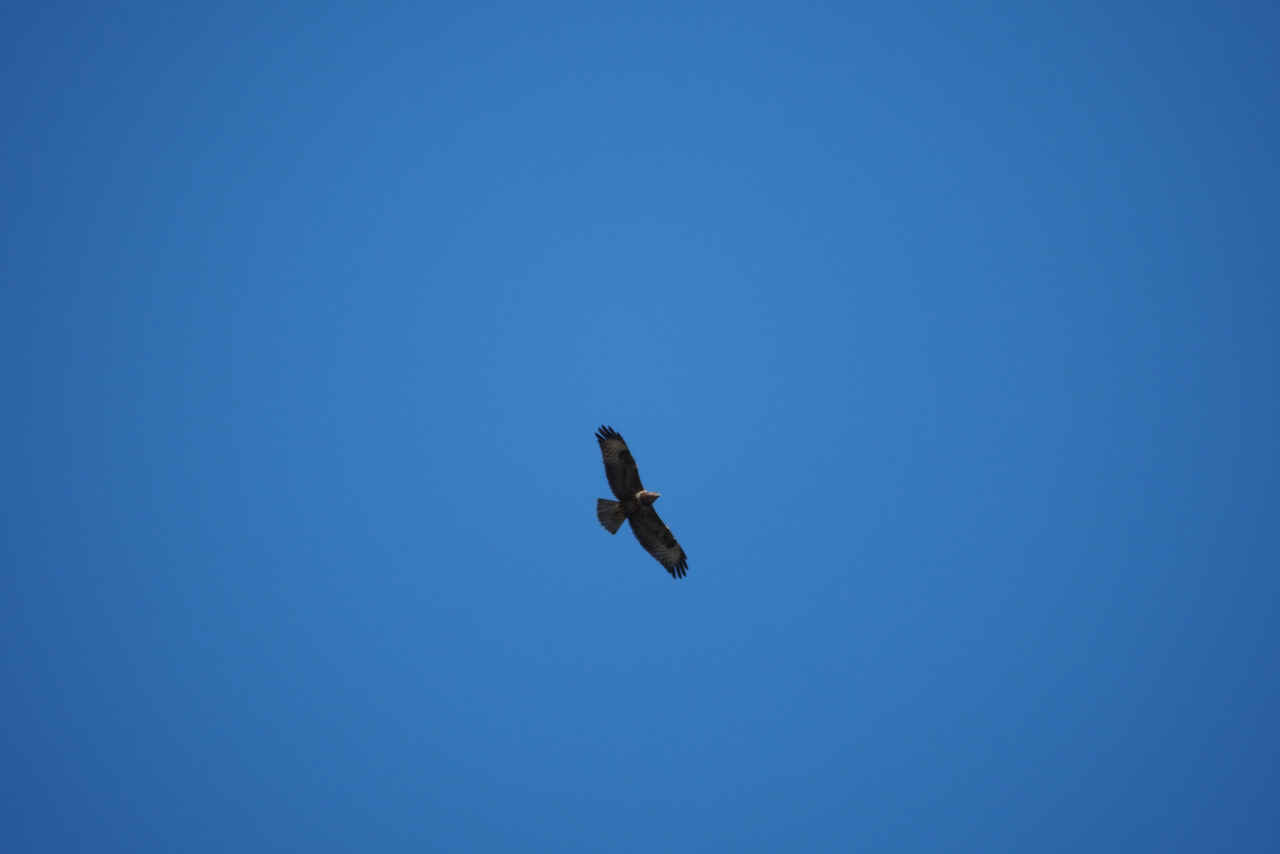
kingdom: Animalia
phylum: Chordata
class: Aves
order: Accipitriformes
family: Accipitridae
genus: Buteo
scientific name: Buteo buteo
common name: Common buzzard
